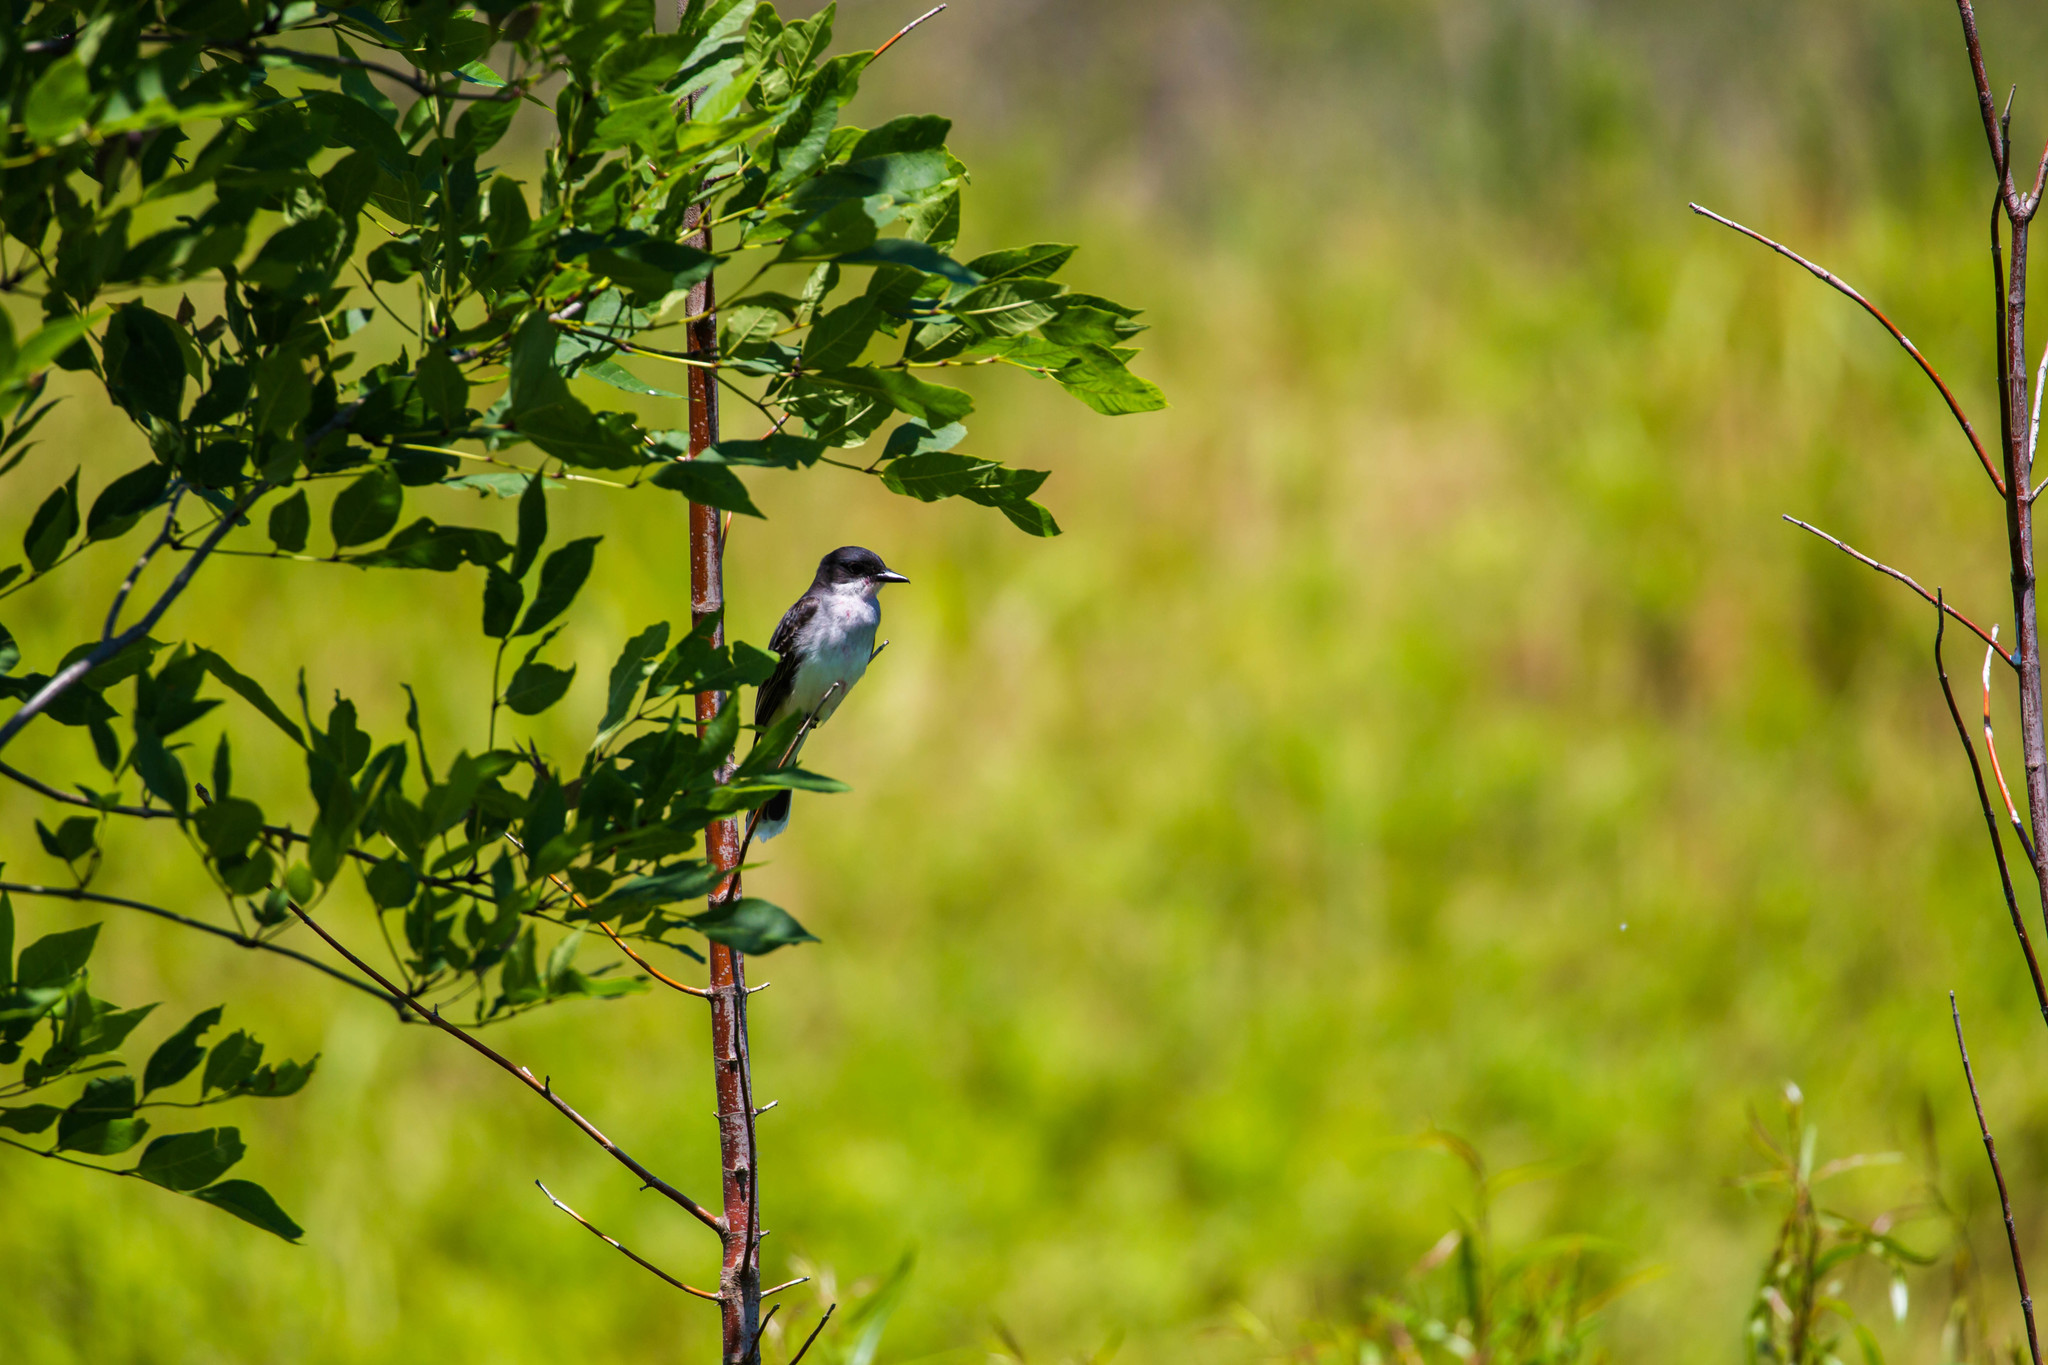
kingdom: Animalia
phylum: Chordata
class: Aves
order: Passeriformes
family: Tyrannidae
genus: Tyrannus
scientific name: Tyrannus tyrannus
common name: Eastern kingbird
